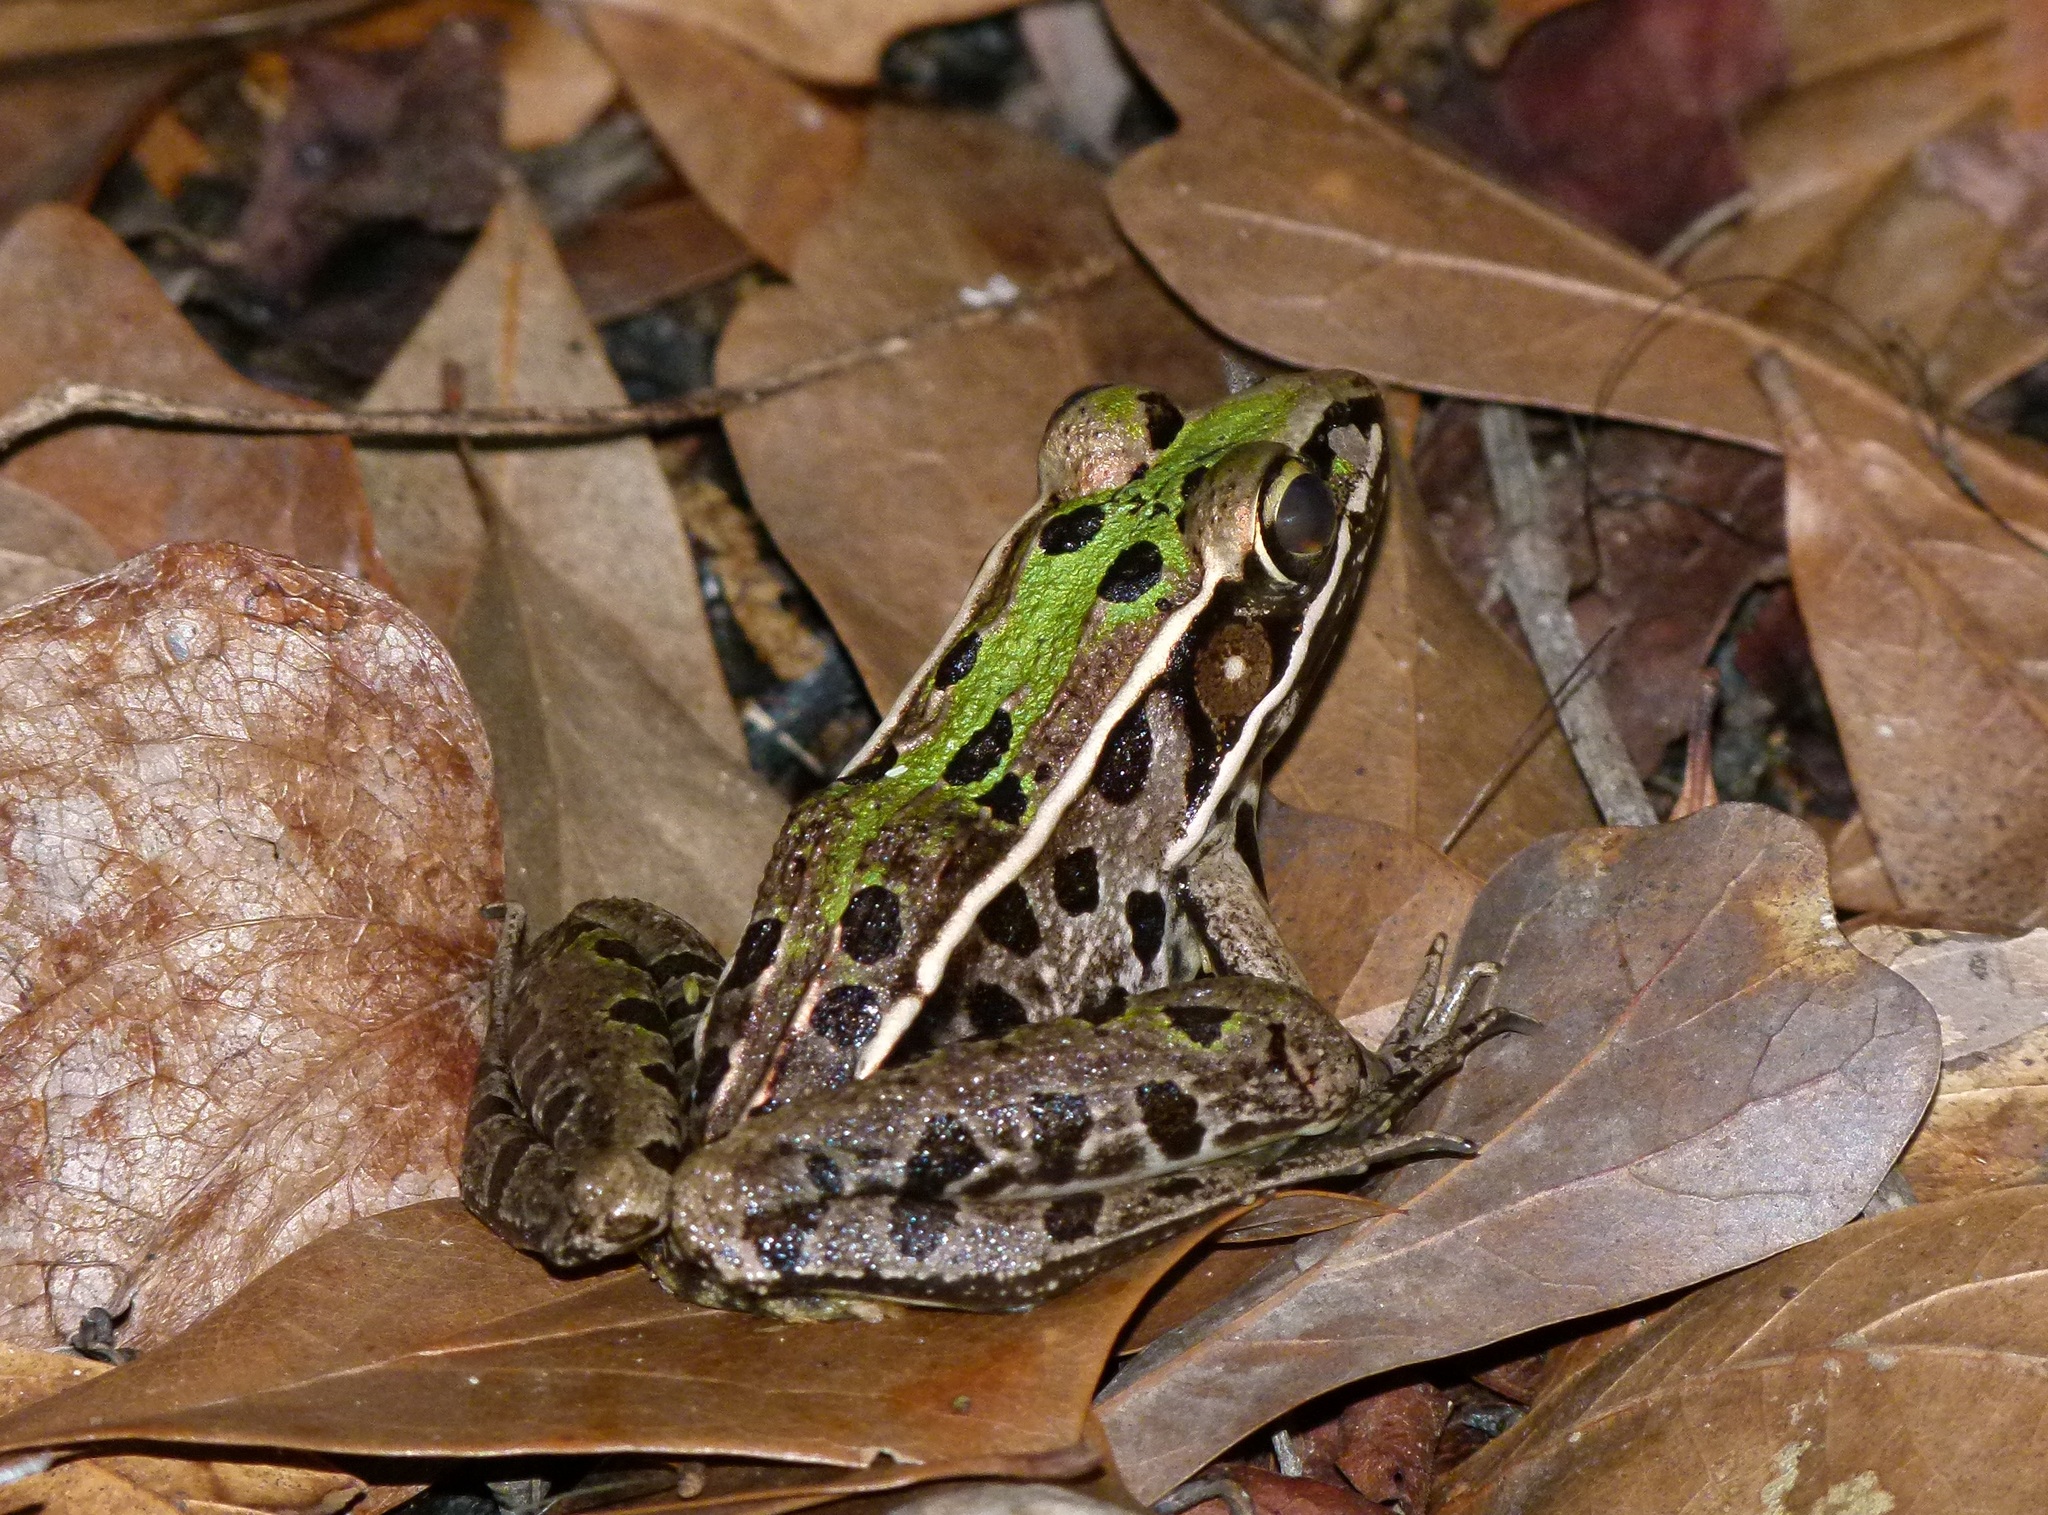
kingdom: Animalia
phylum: Chordata
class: Amphibia
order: Anura
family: Ranidae
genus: Lithobates
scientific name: Lithobates sphenocephalus
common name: Southern leopard frog
